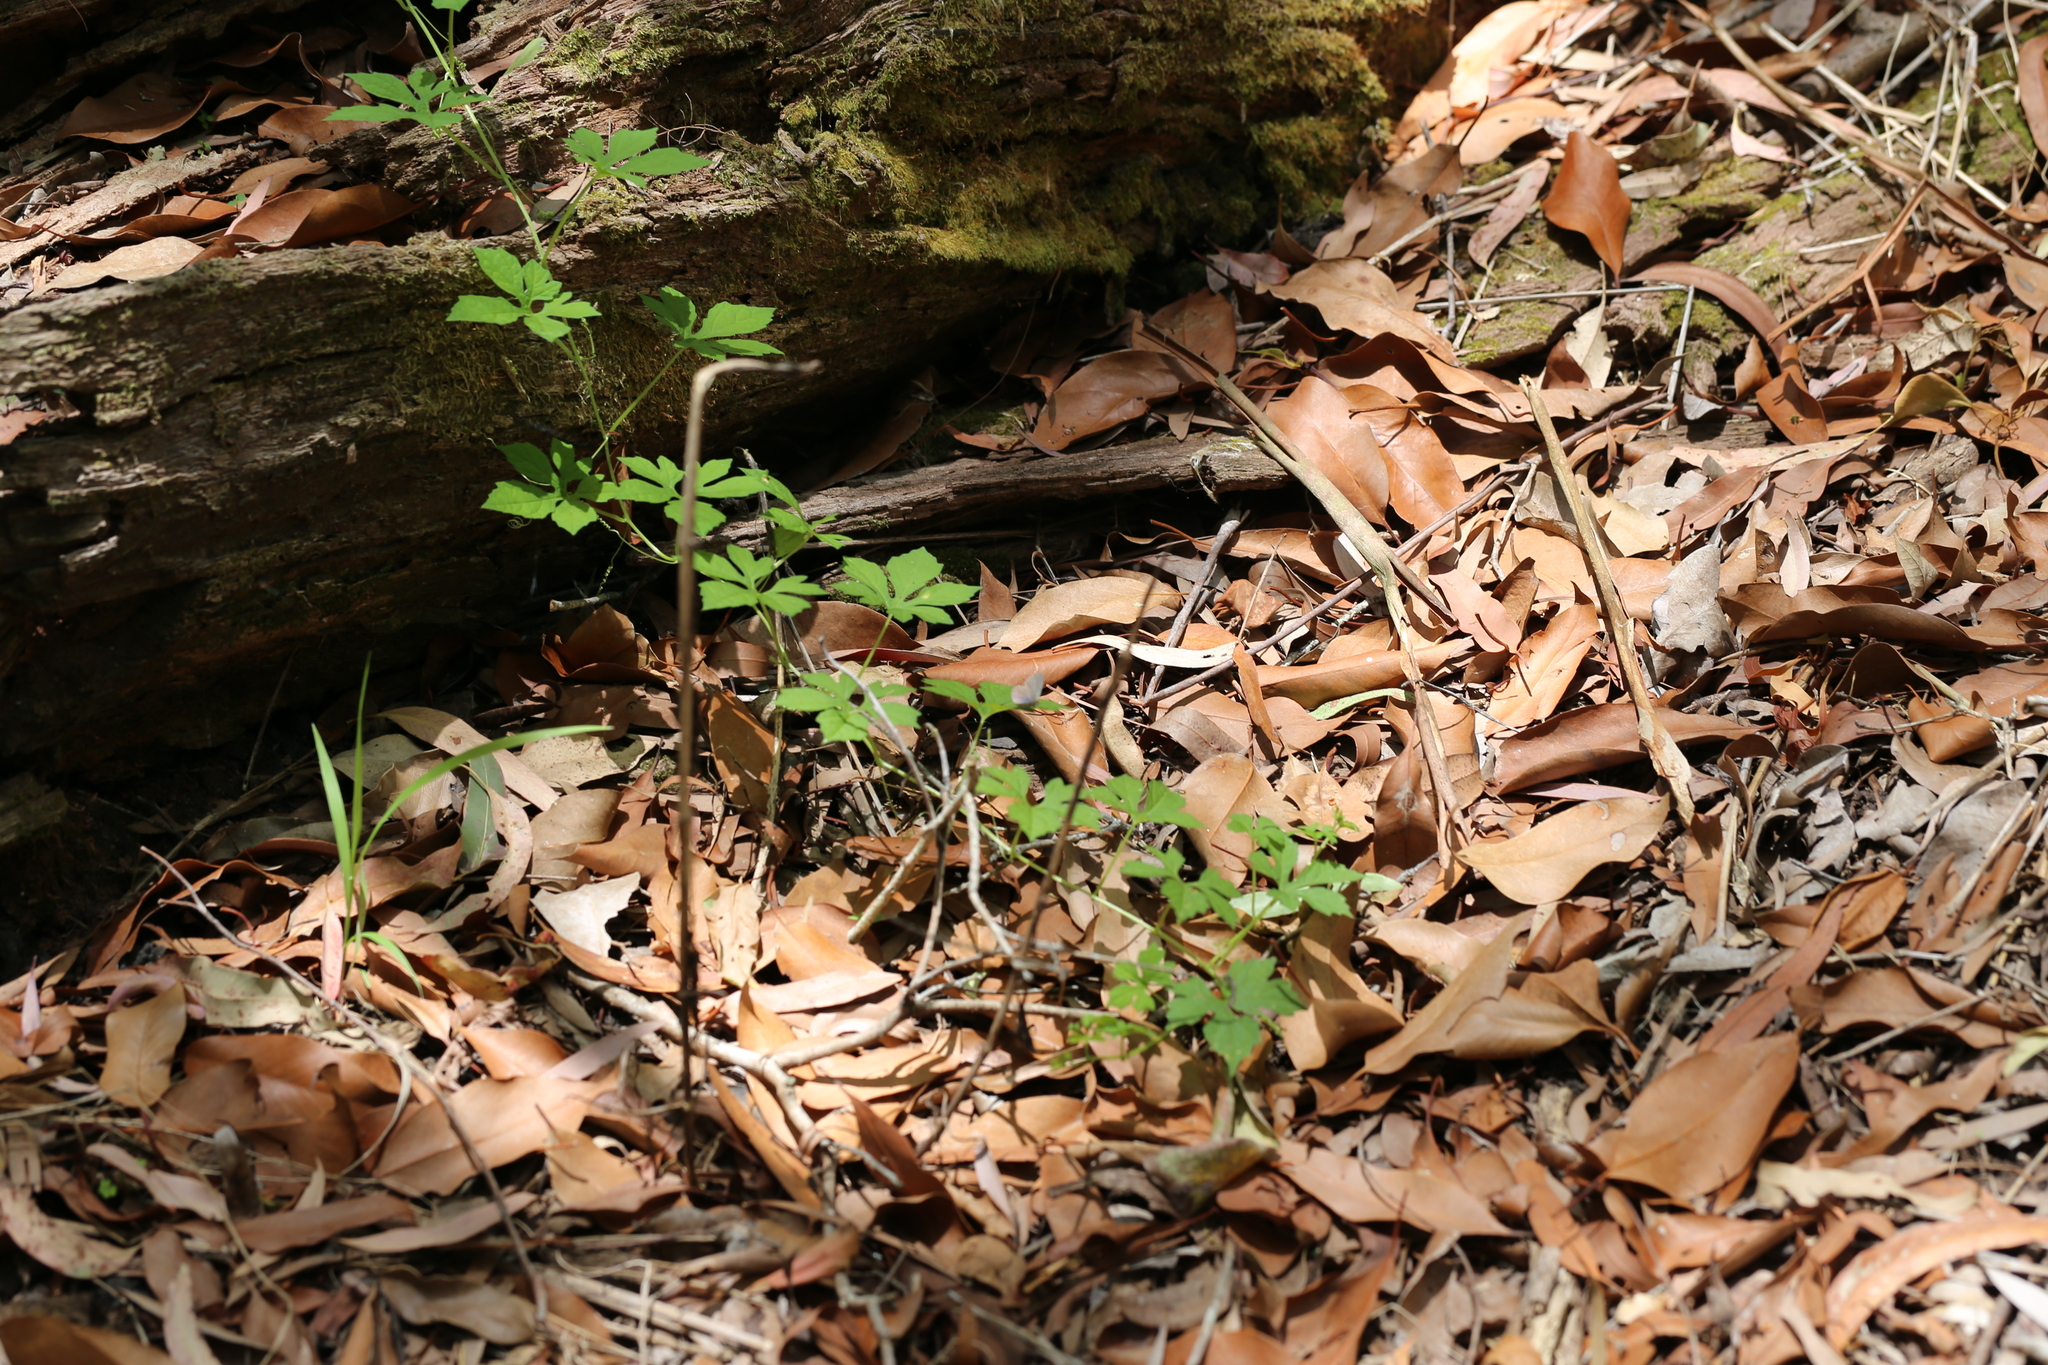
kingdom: Plantae
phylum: Tracheophyta
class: Magnoliopsida
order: Cucurbitales
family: Cucurbitaceae
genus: Momordica
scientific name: Momordica charantia
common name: Balsampear
